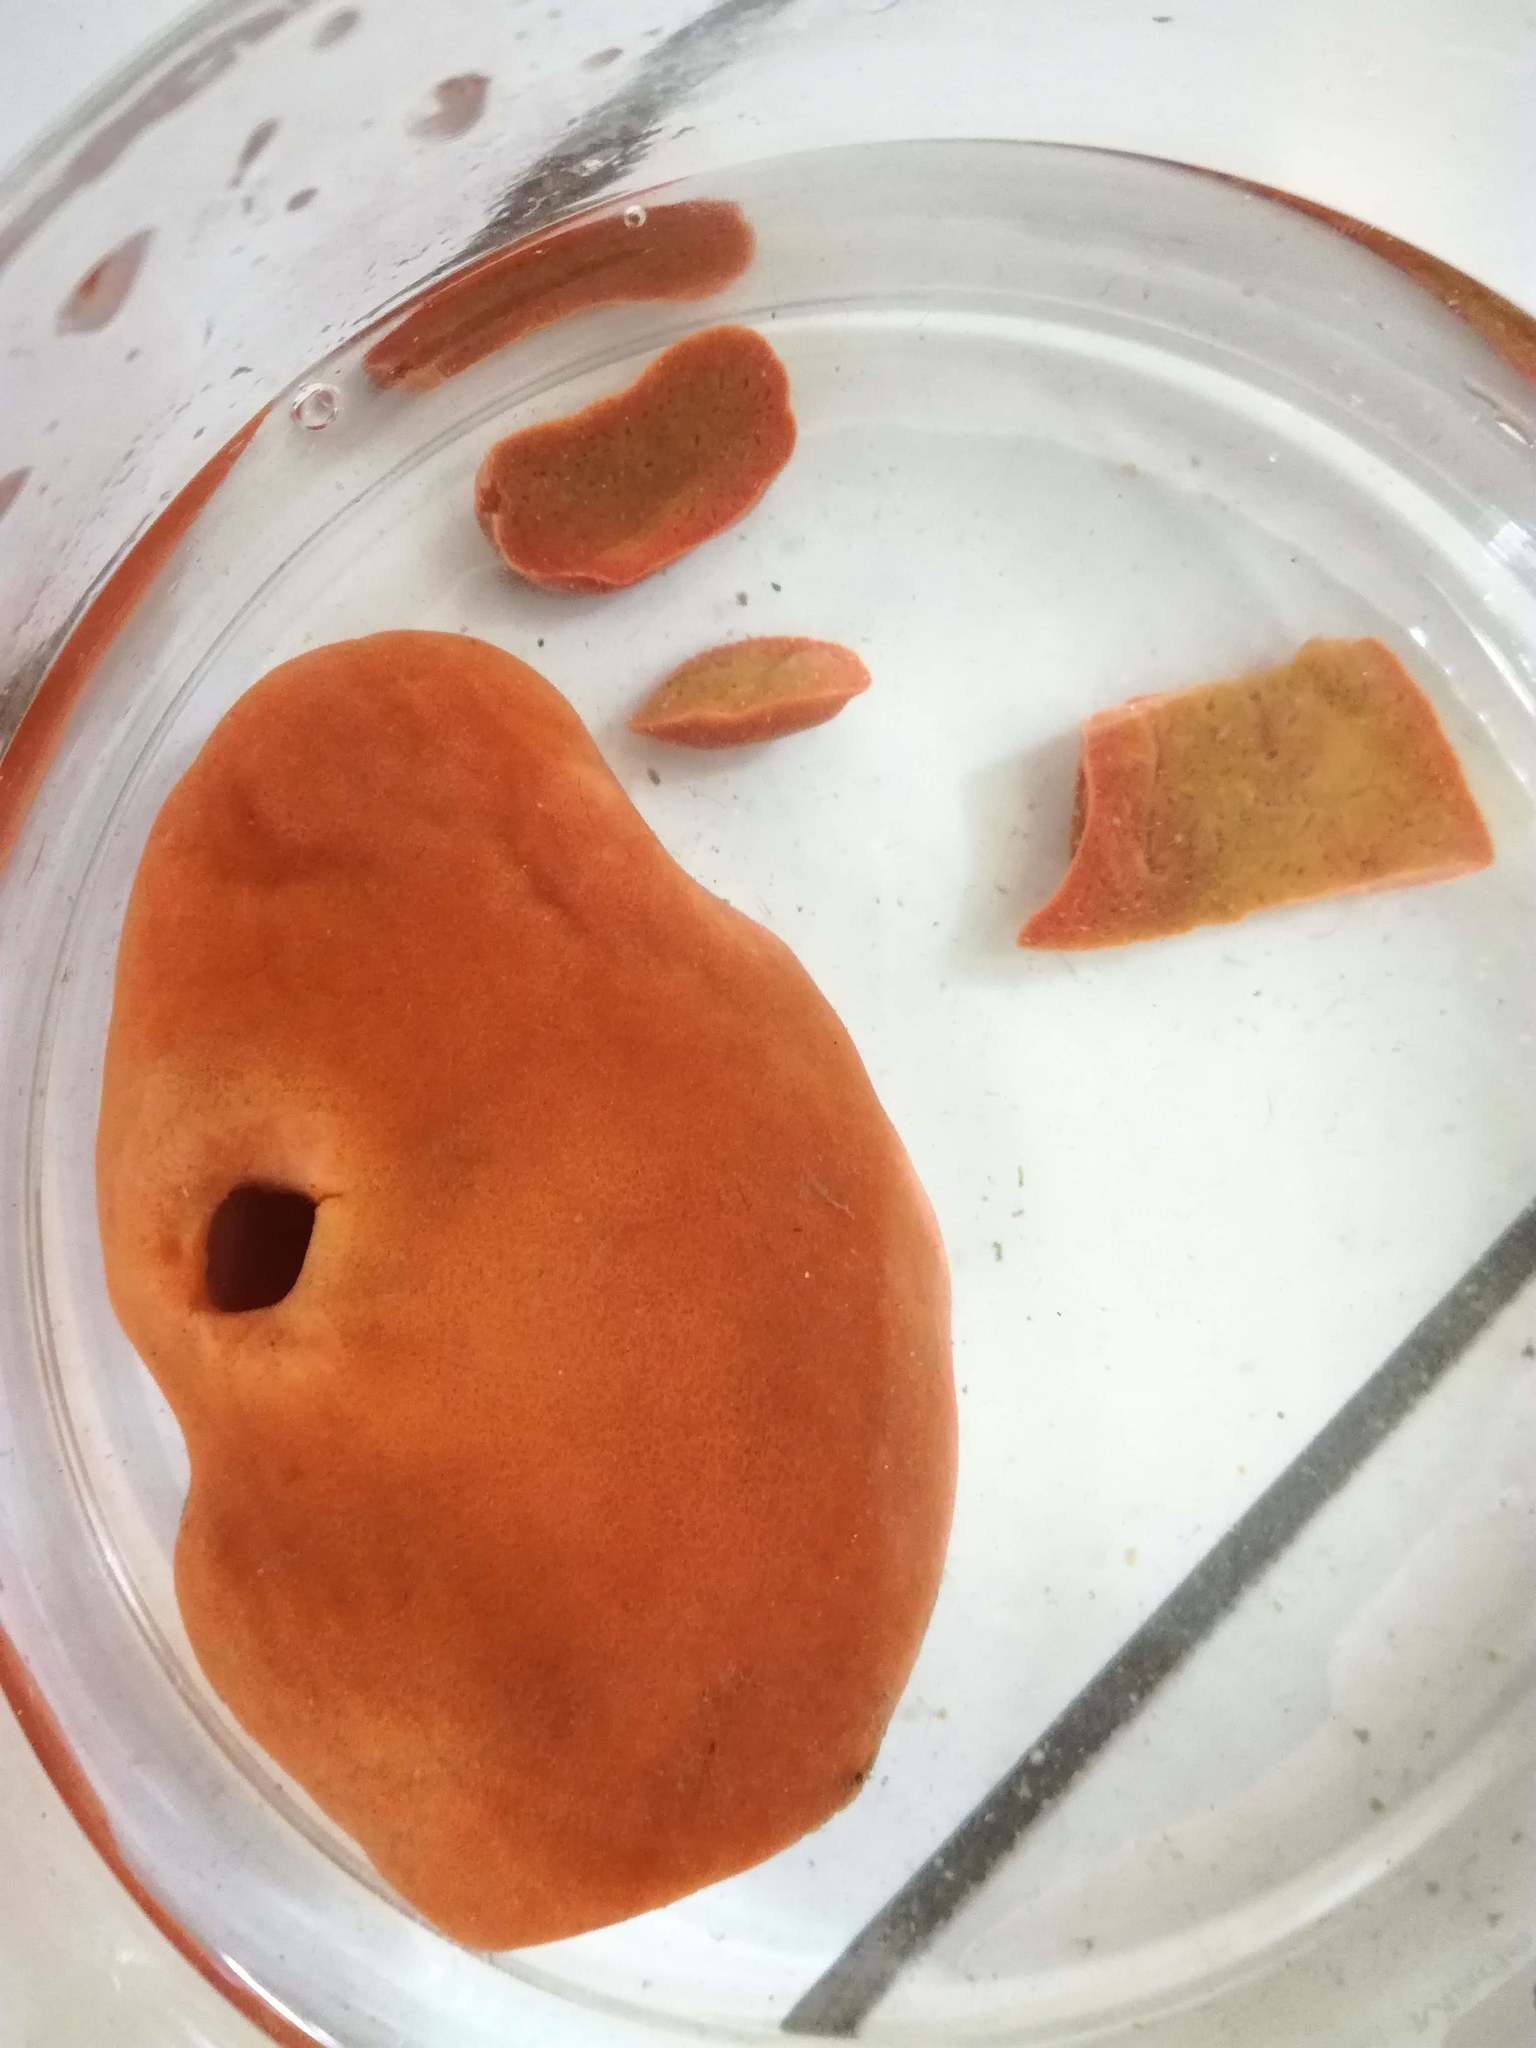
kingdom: Animalia
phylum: Porifera
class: Demospongiae
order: Suberitida
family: Suberitidae
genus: Suberites
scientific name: Suberites domuncula
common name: Hermit crab sponge
